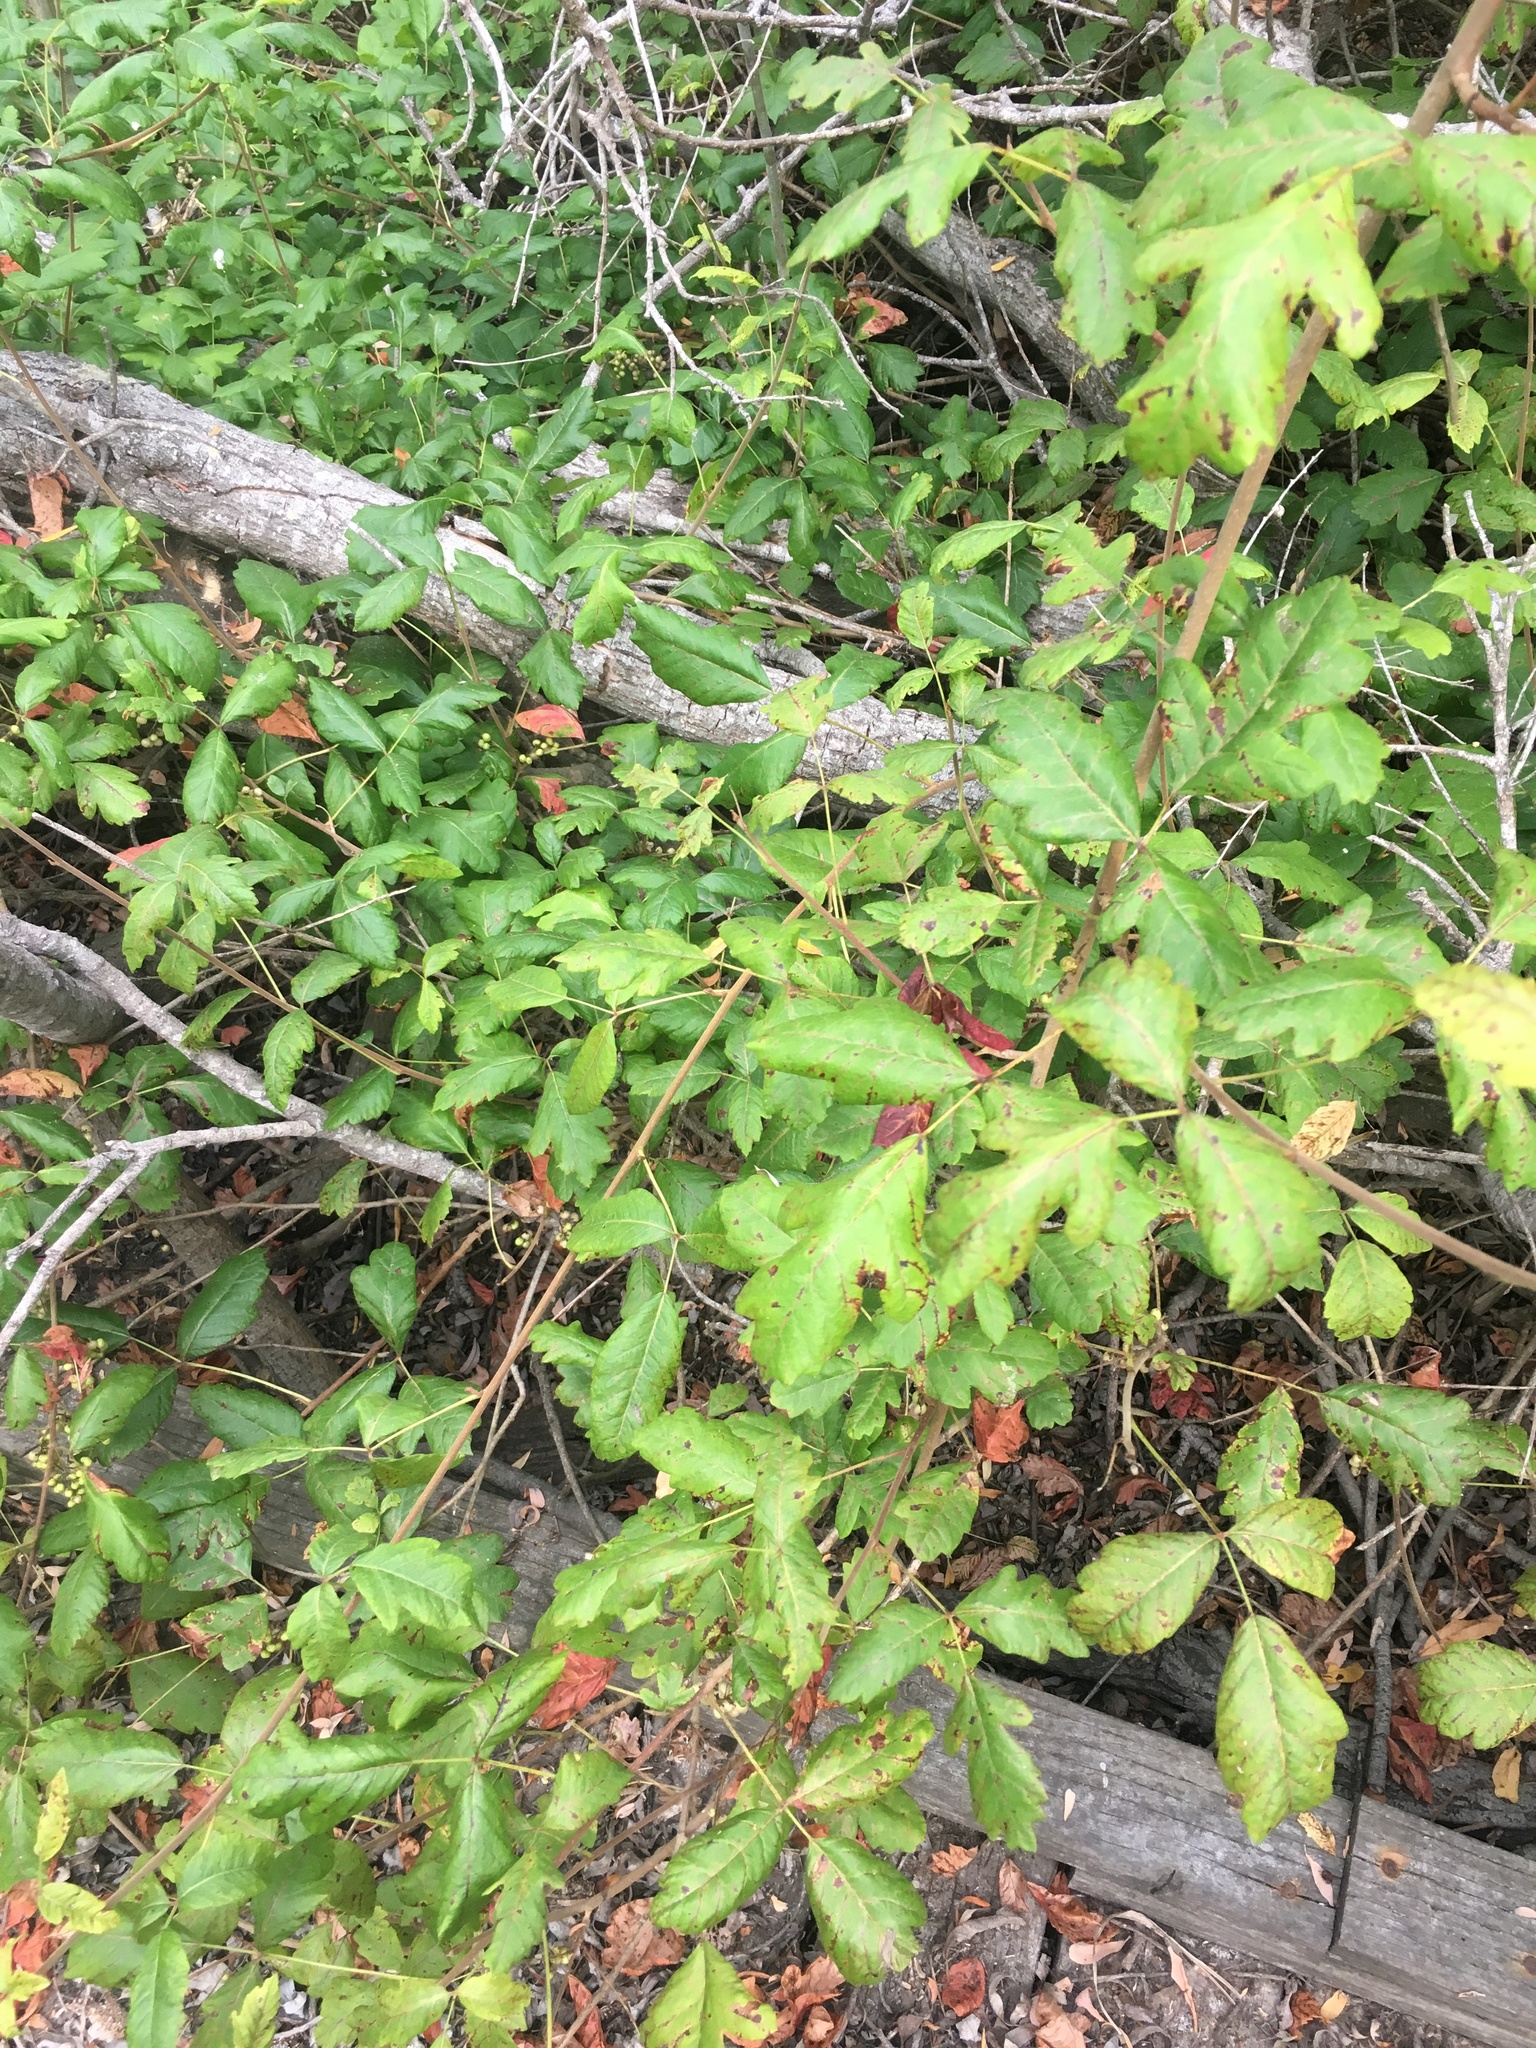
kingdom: Plantae
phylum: Tracheophyta
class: Magnoliopsida
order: Sapindales
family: Anacardiaceae
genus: Toxicodendron
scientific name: Toxicodendron diversilobum
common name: Pacific poison-oak
